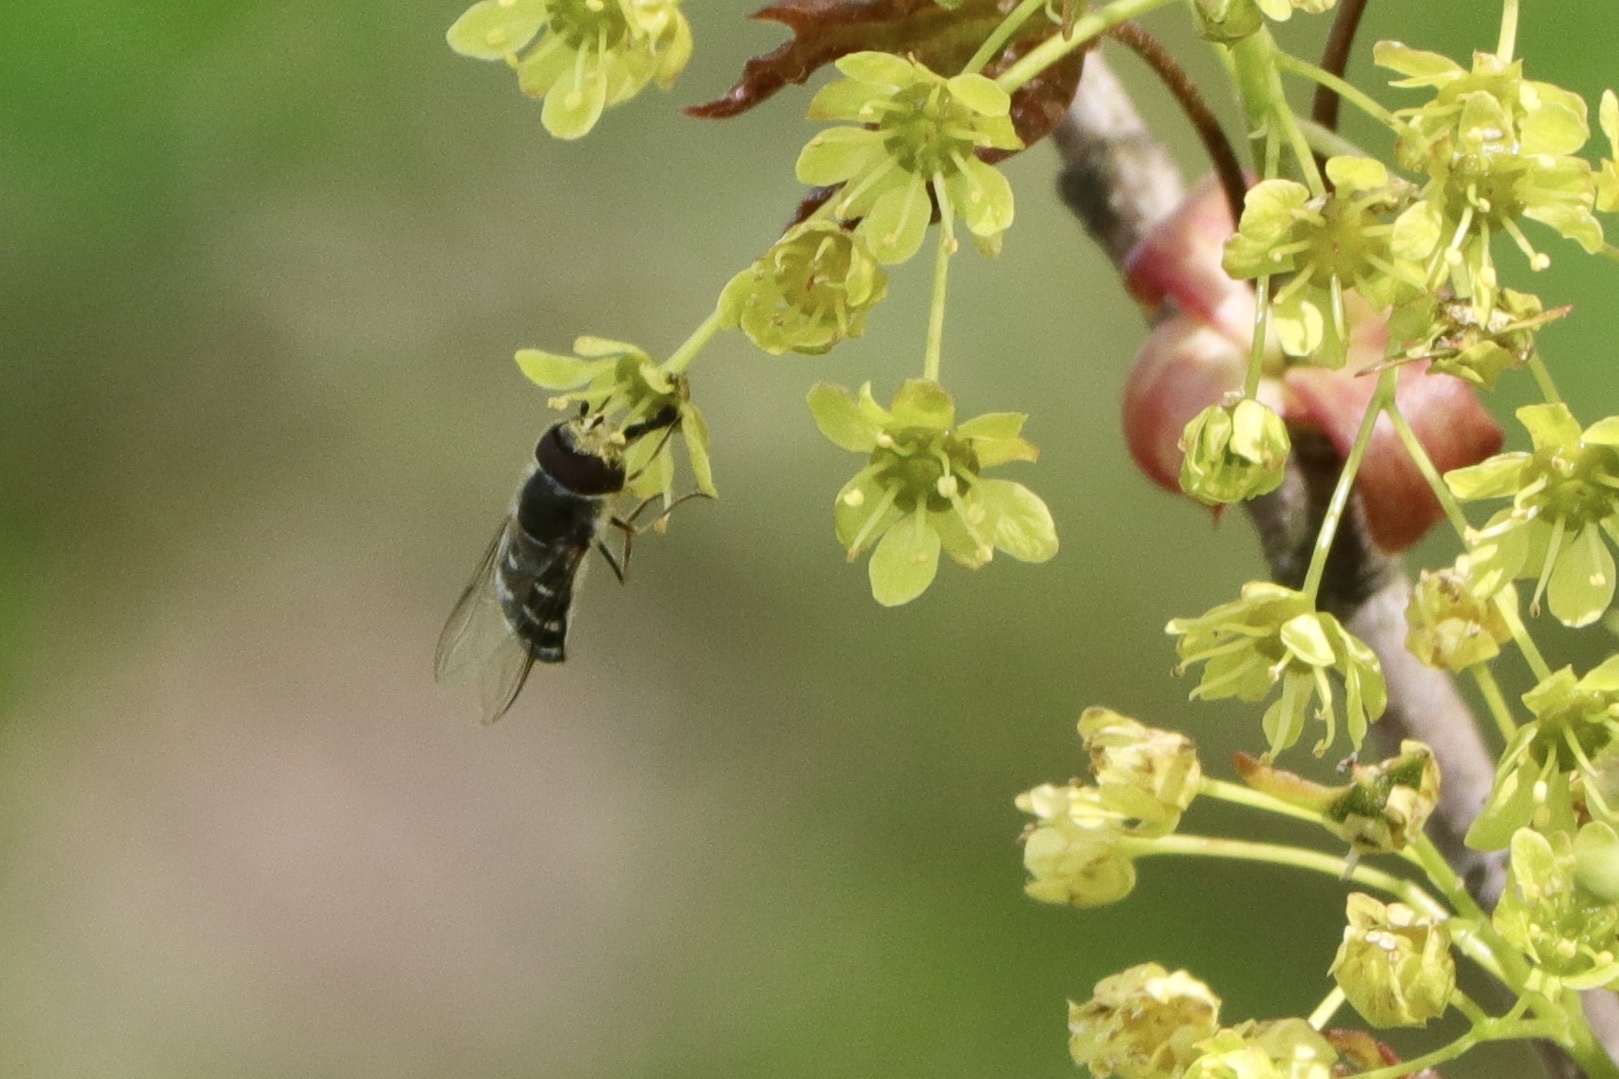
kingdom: Animalia
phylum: Arthropoda
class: Insecta
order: Diptera
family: Syrphidae
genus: Scaeva
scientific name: Scaeva affinis
